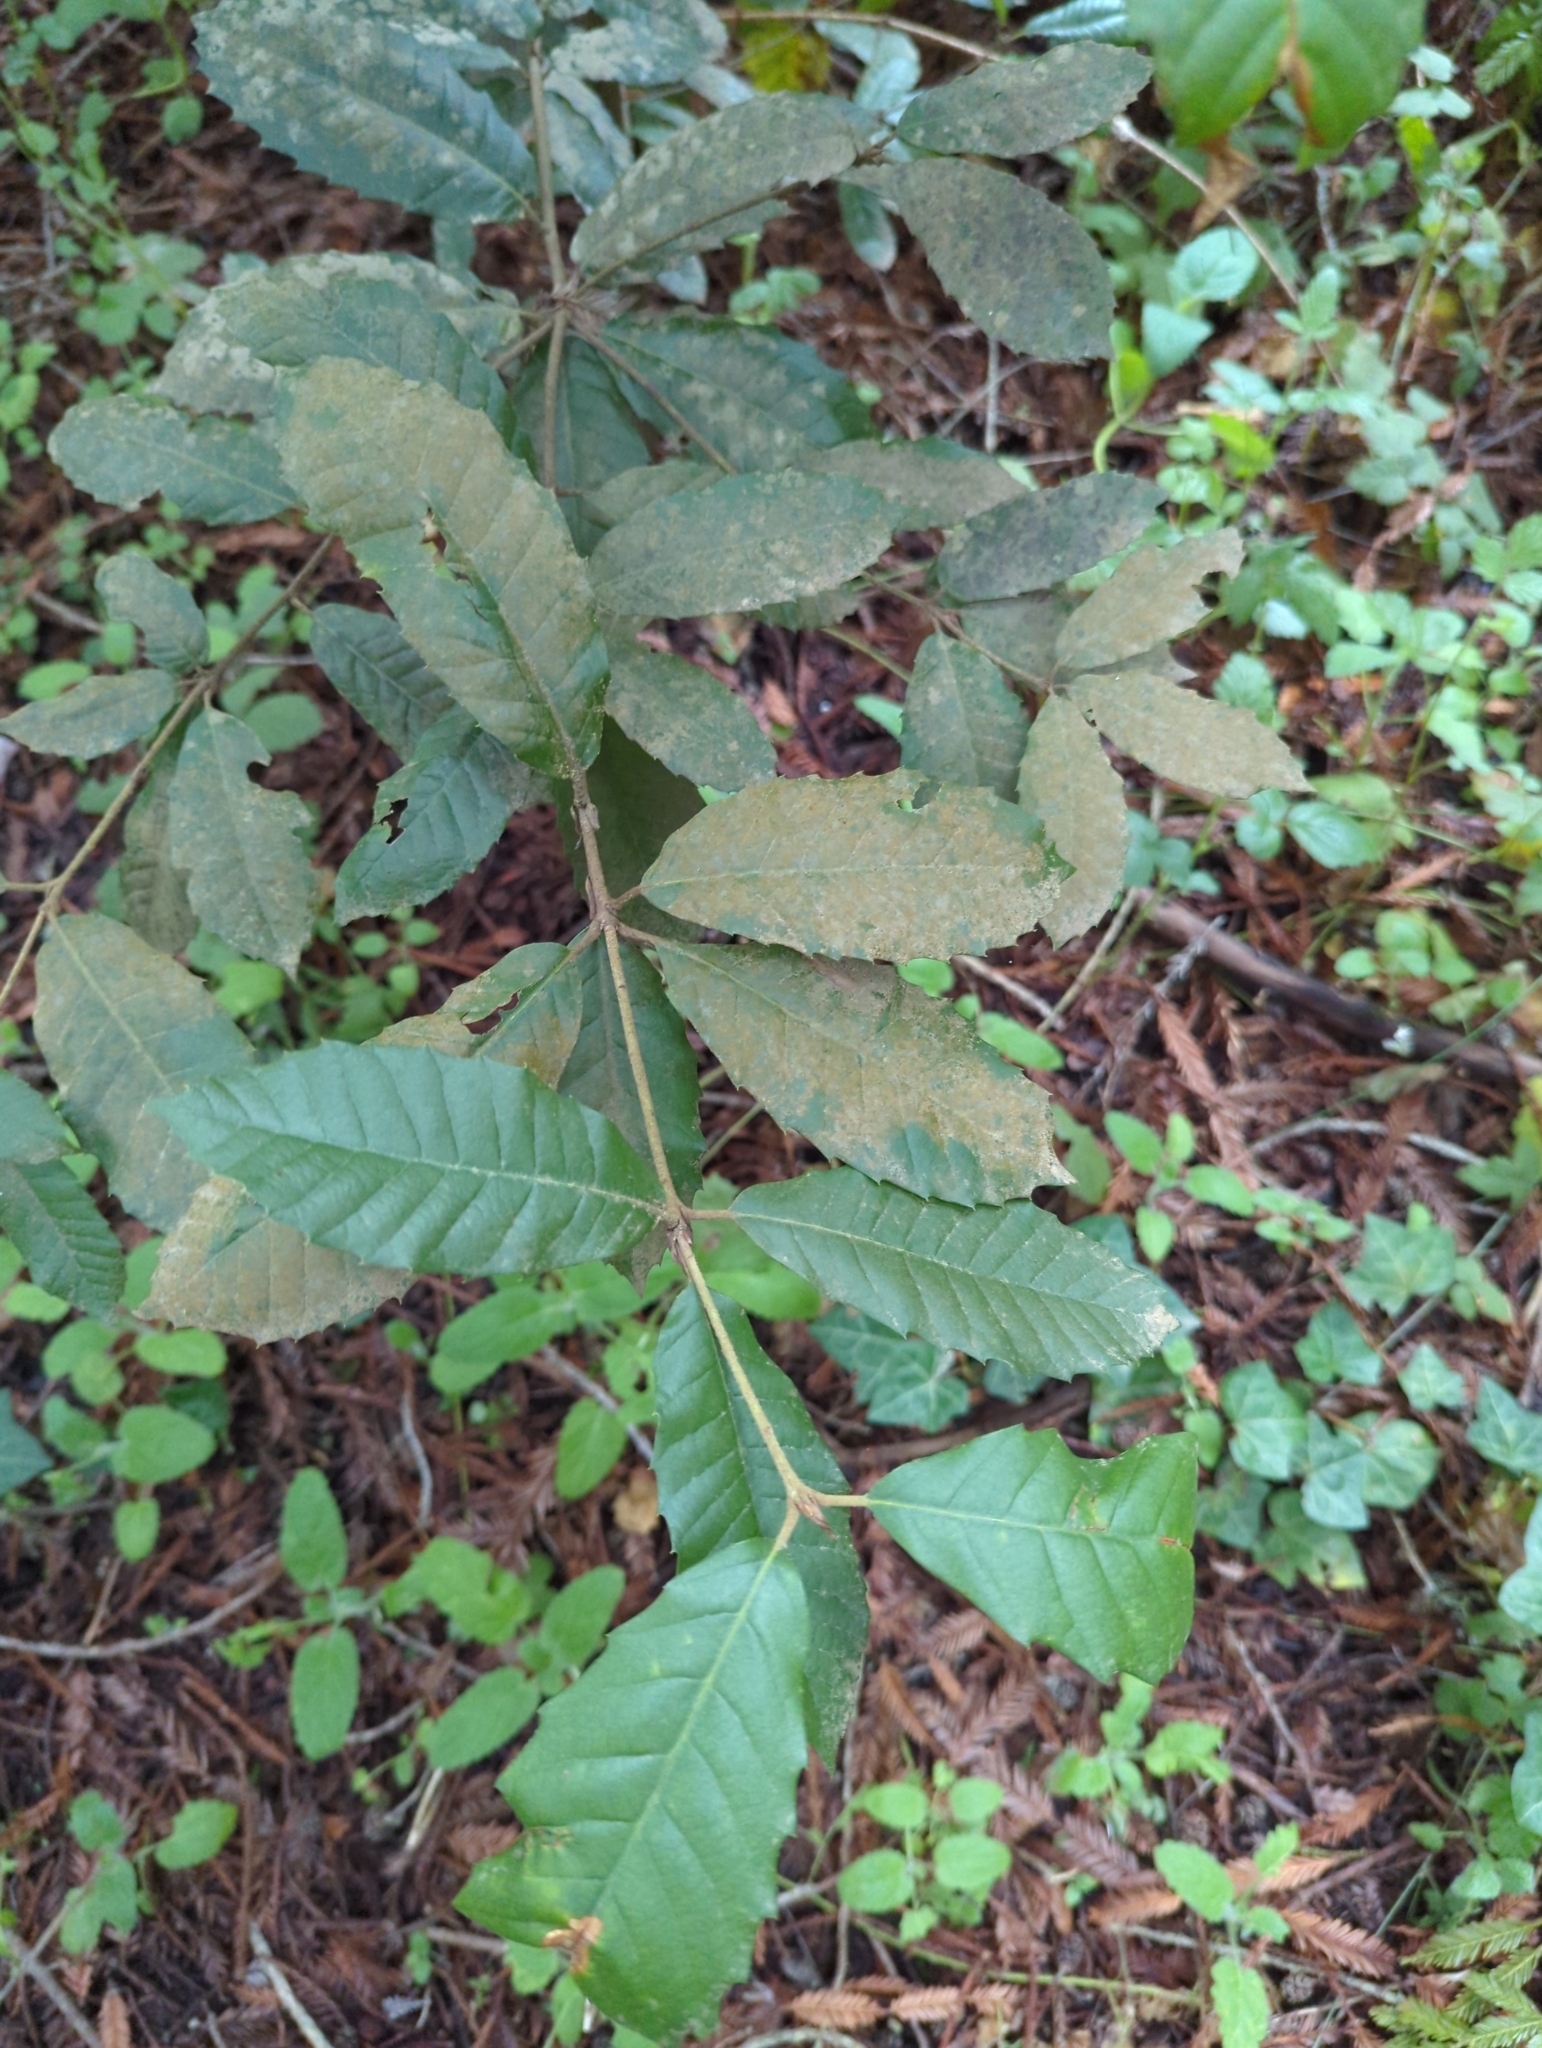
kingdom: Plantae
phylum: Tracheophyta
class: Magnoliopsida
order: Fagales
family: Fagaceae
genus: Notholithocarpus
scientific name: Notholithocarpus densiflorus
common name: Tan bark oak
